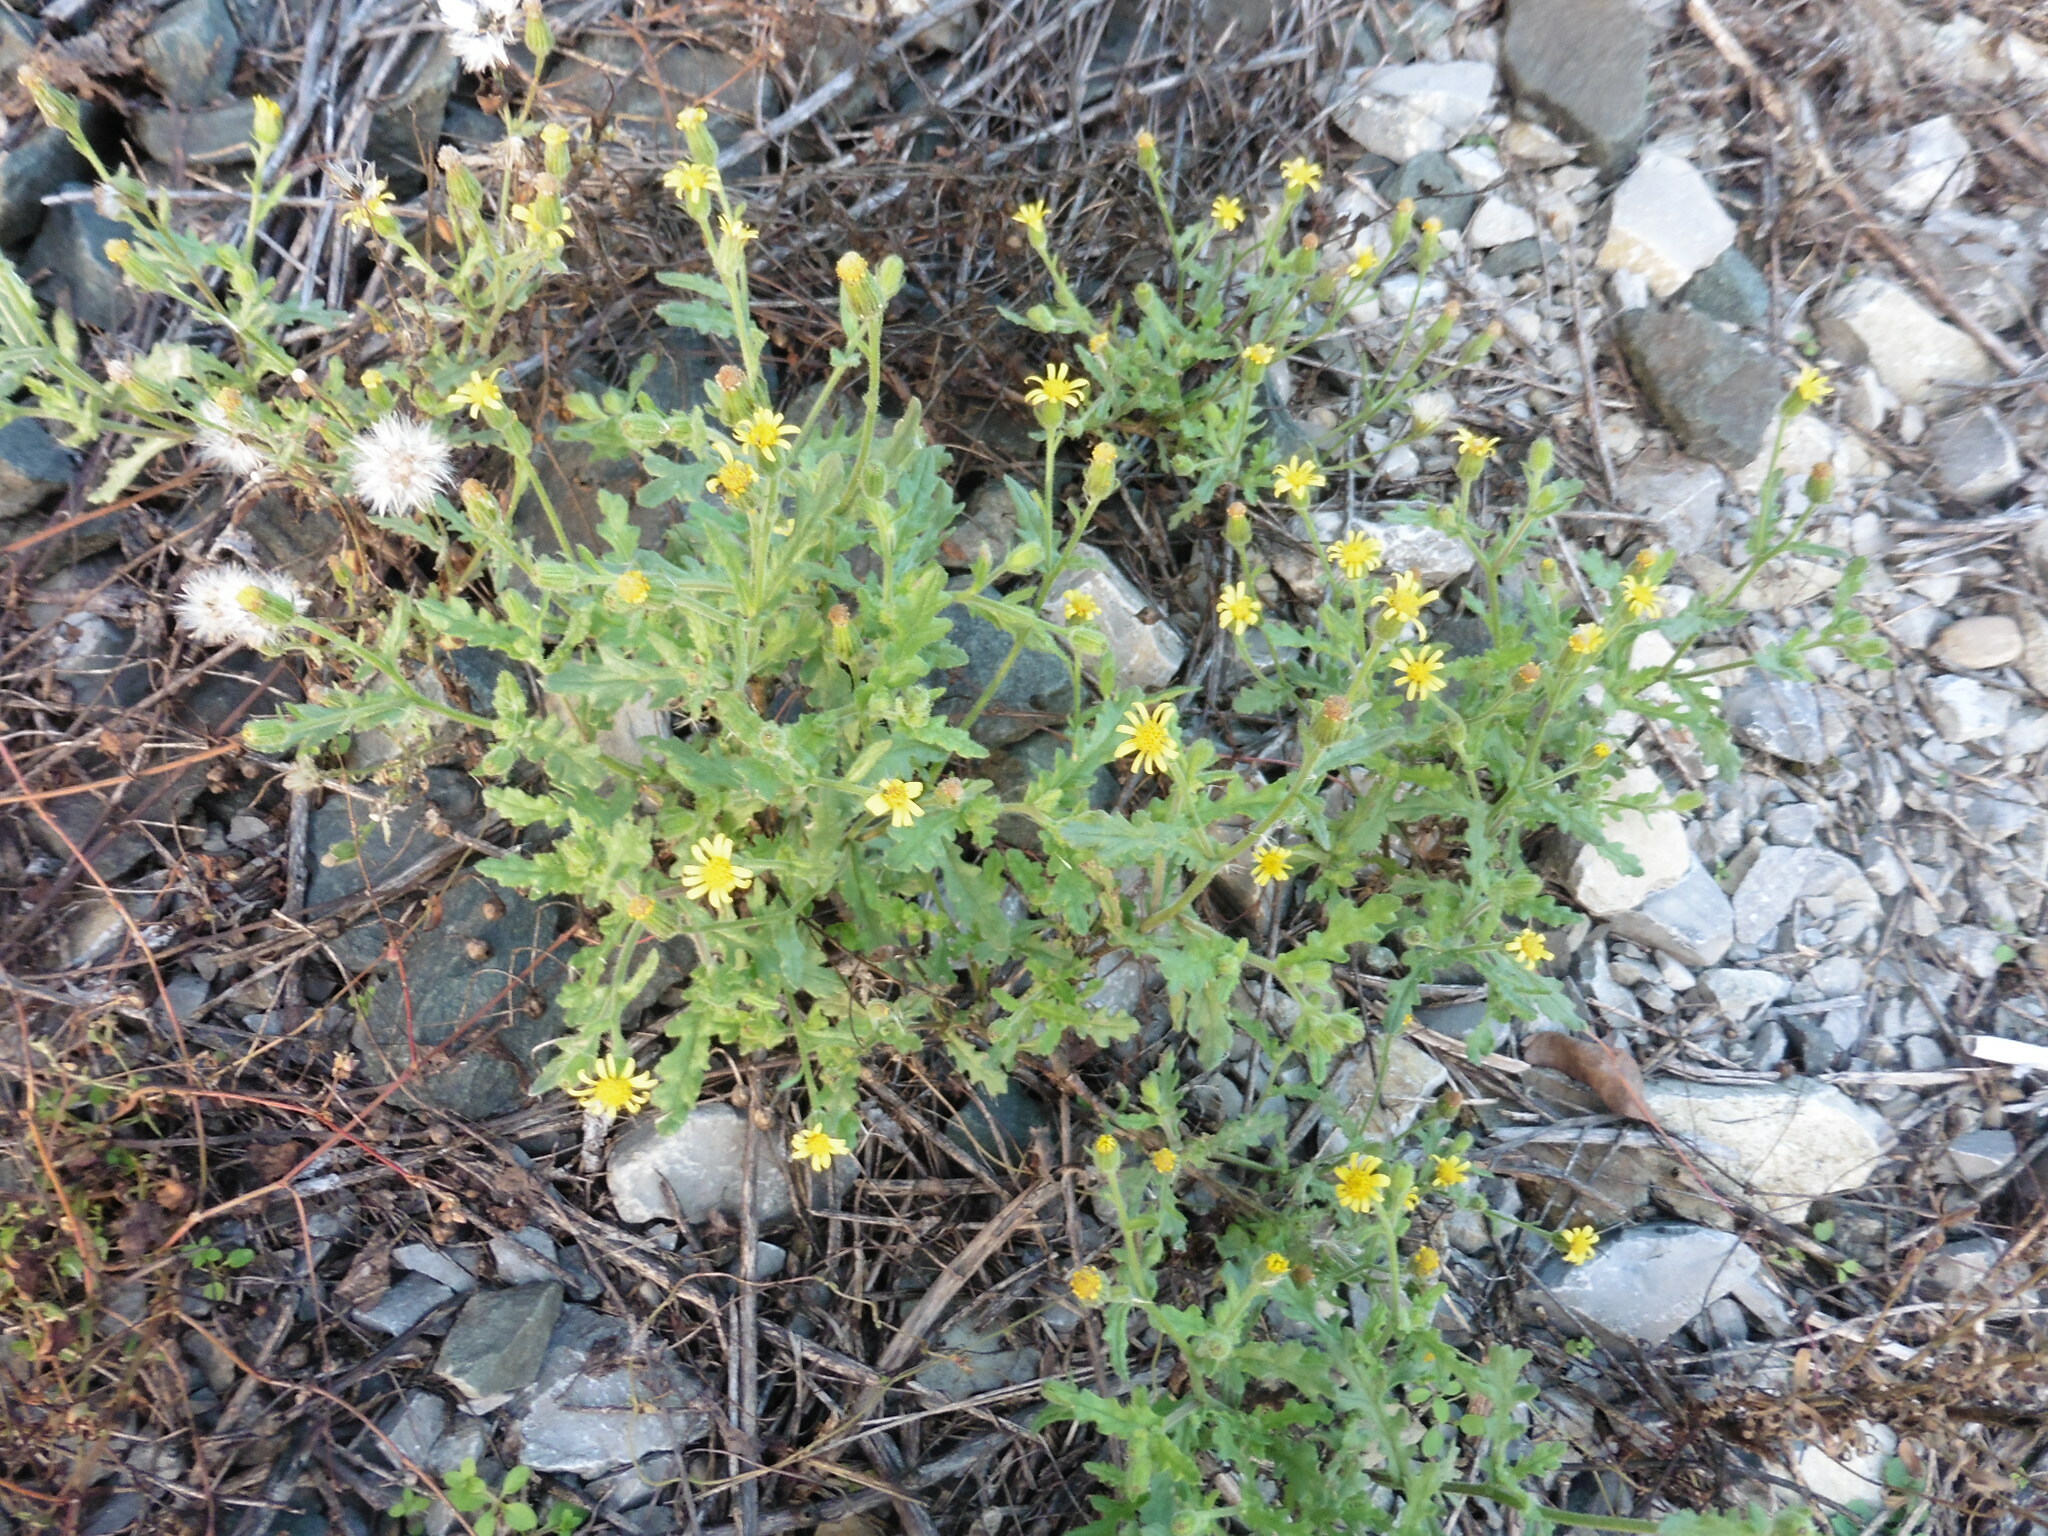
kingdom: Plantae
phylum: Tracheophyta
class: Magnoliopsida
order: Asterales
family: Asteraceae
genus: Senecio
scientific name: Senecio viscosus
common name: Sticky groundsel
